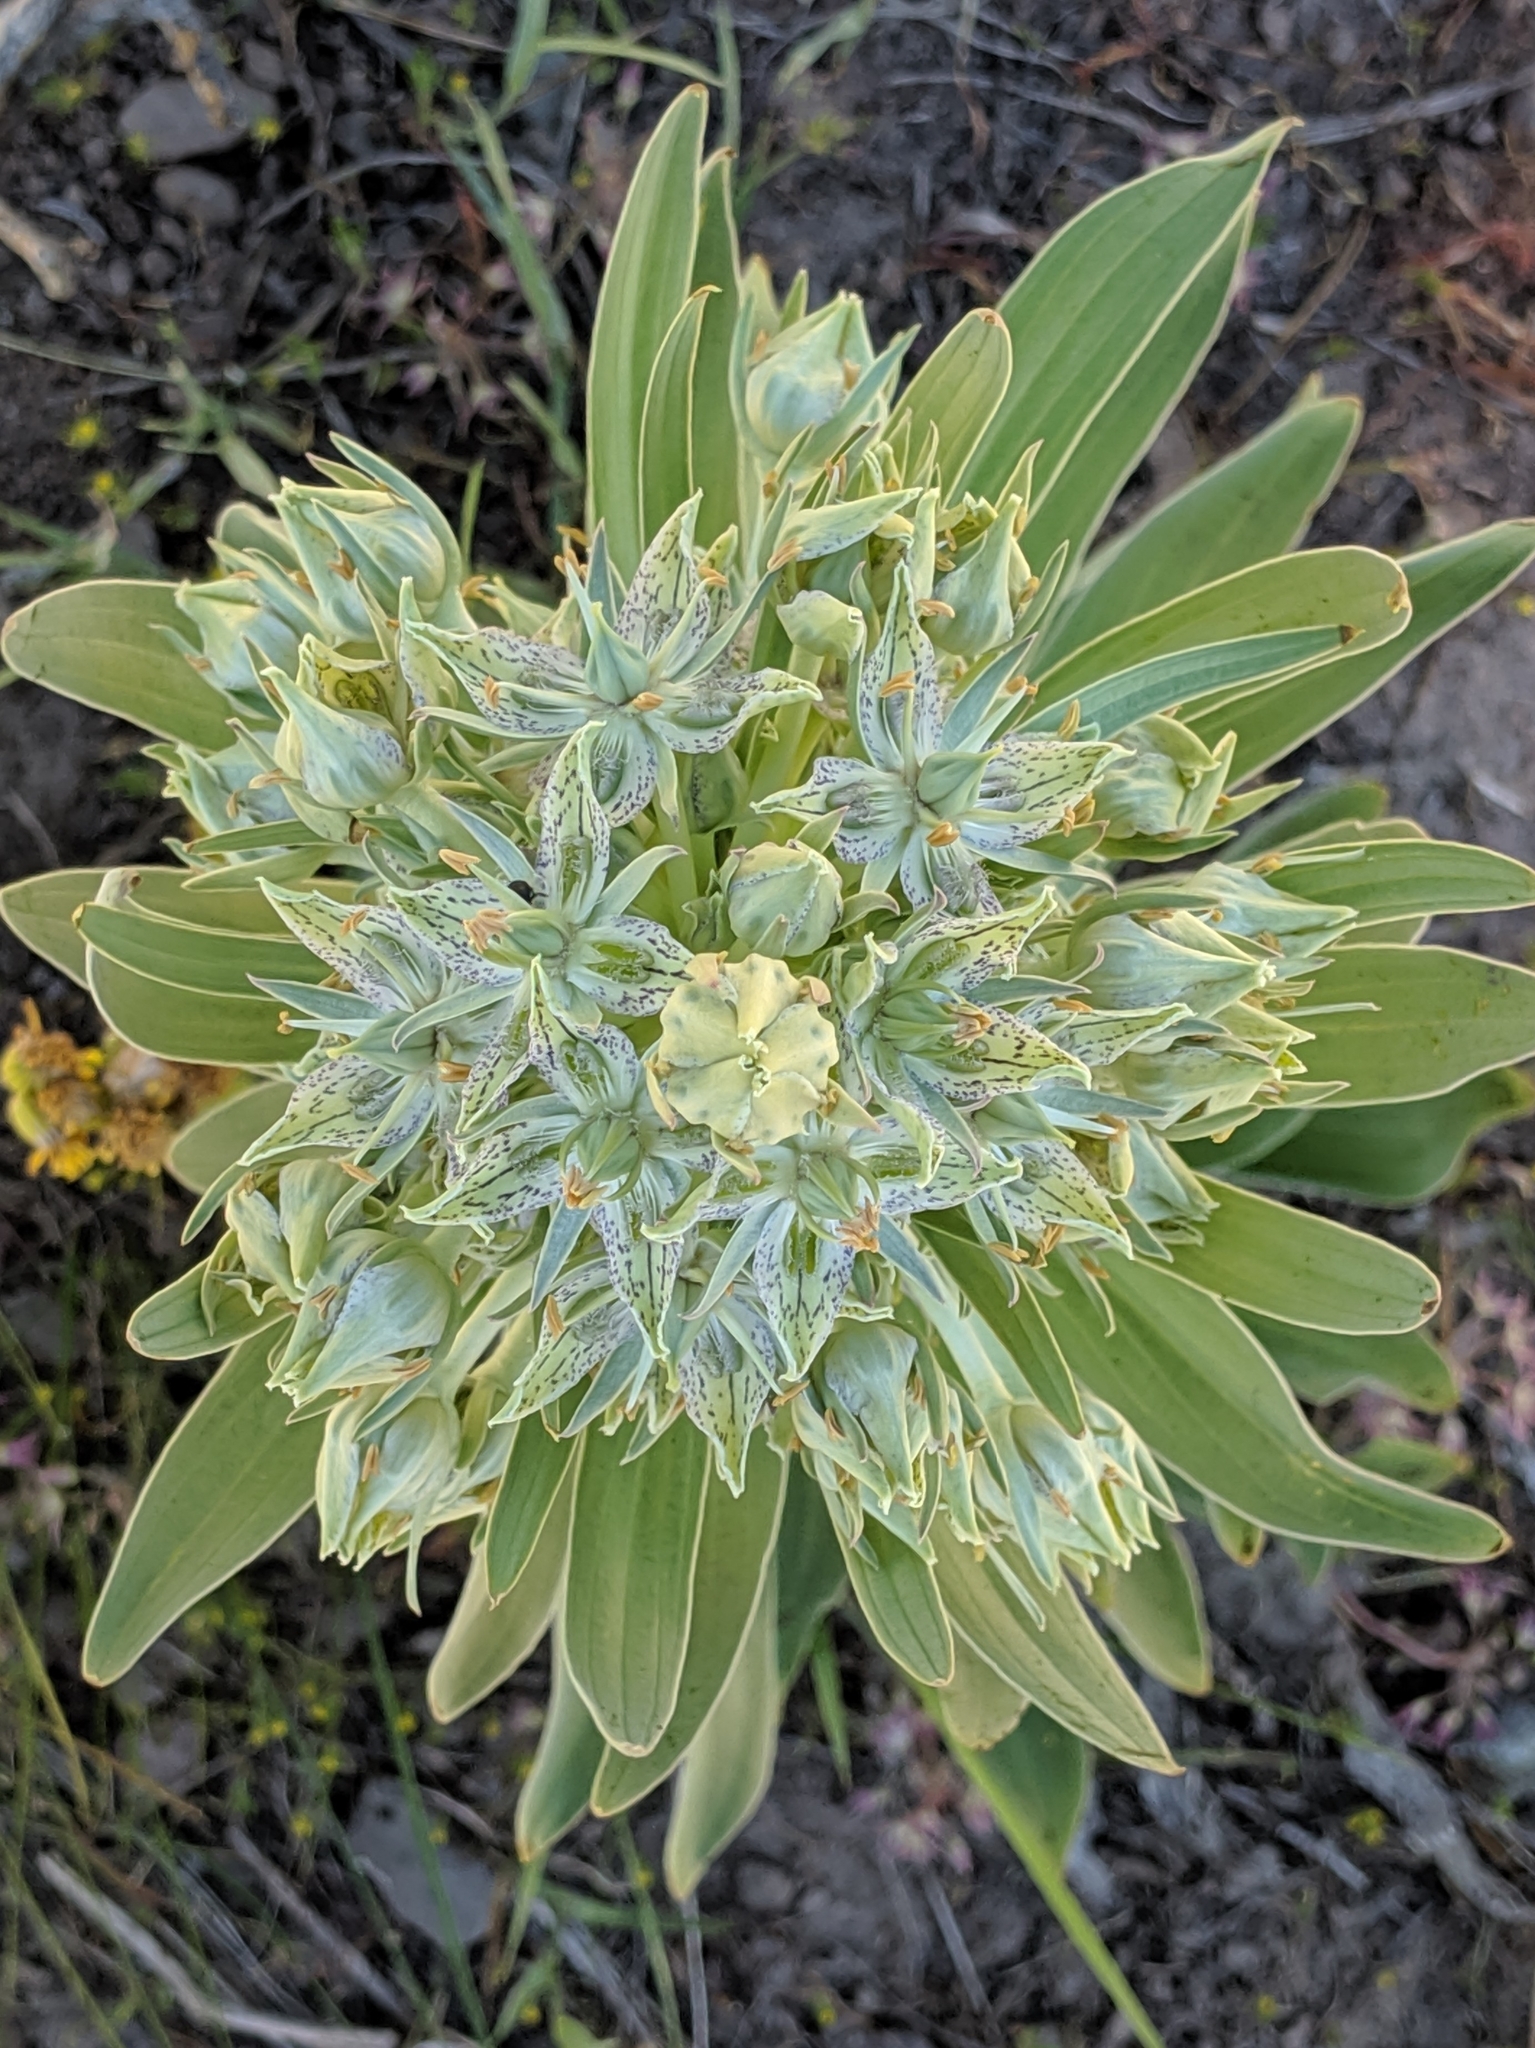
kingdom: Plantae
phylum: Tracheophyta
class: Magnoliopsida
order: Gentianales
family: Gentianaceae
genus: Frasera
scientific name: Frasera speciosa
